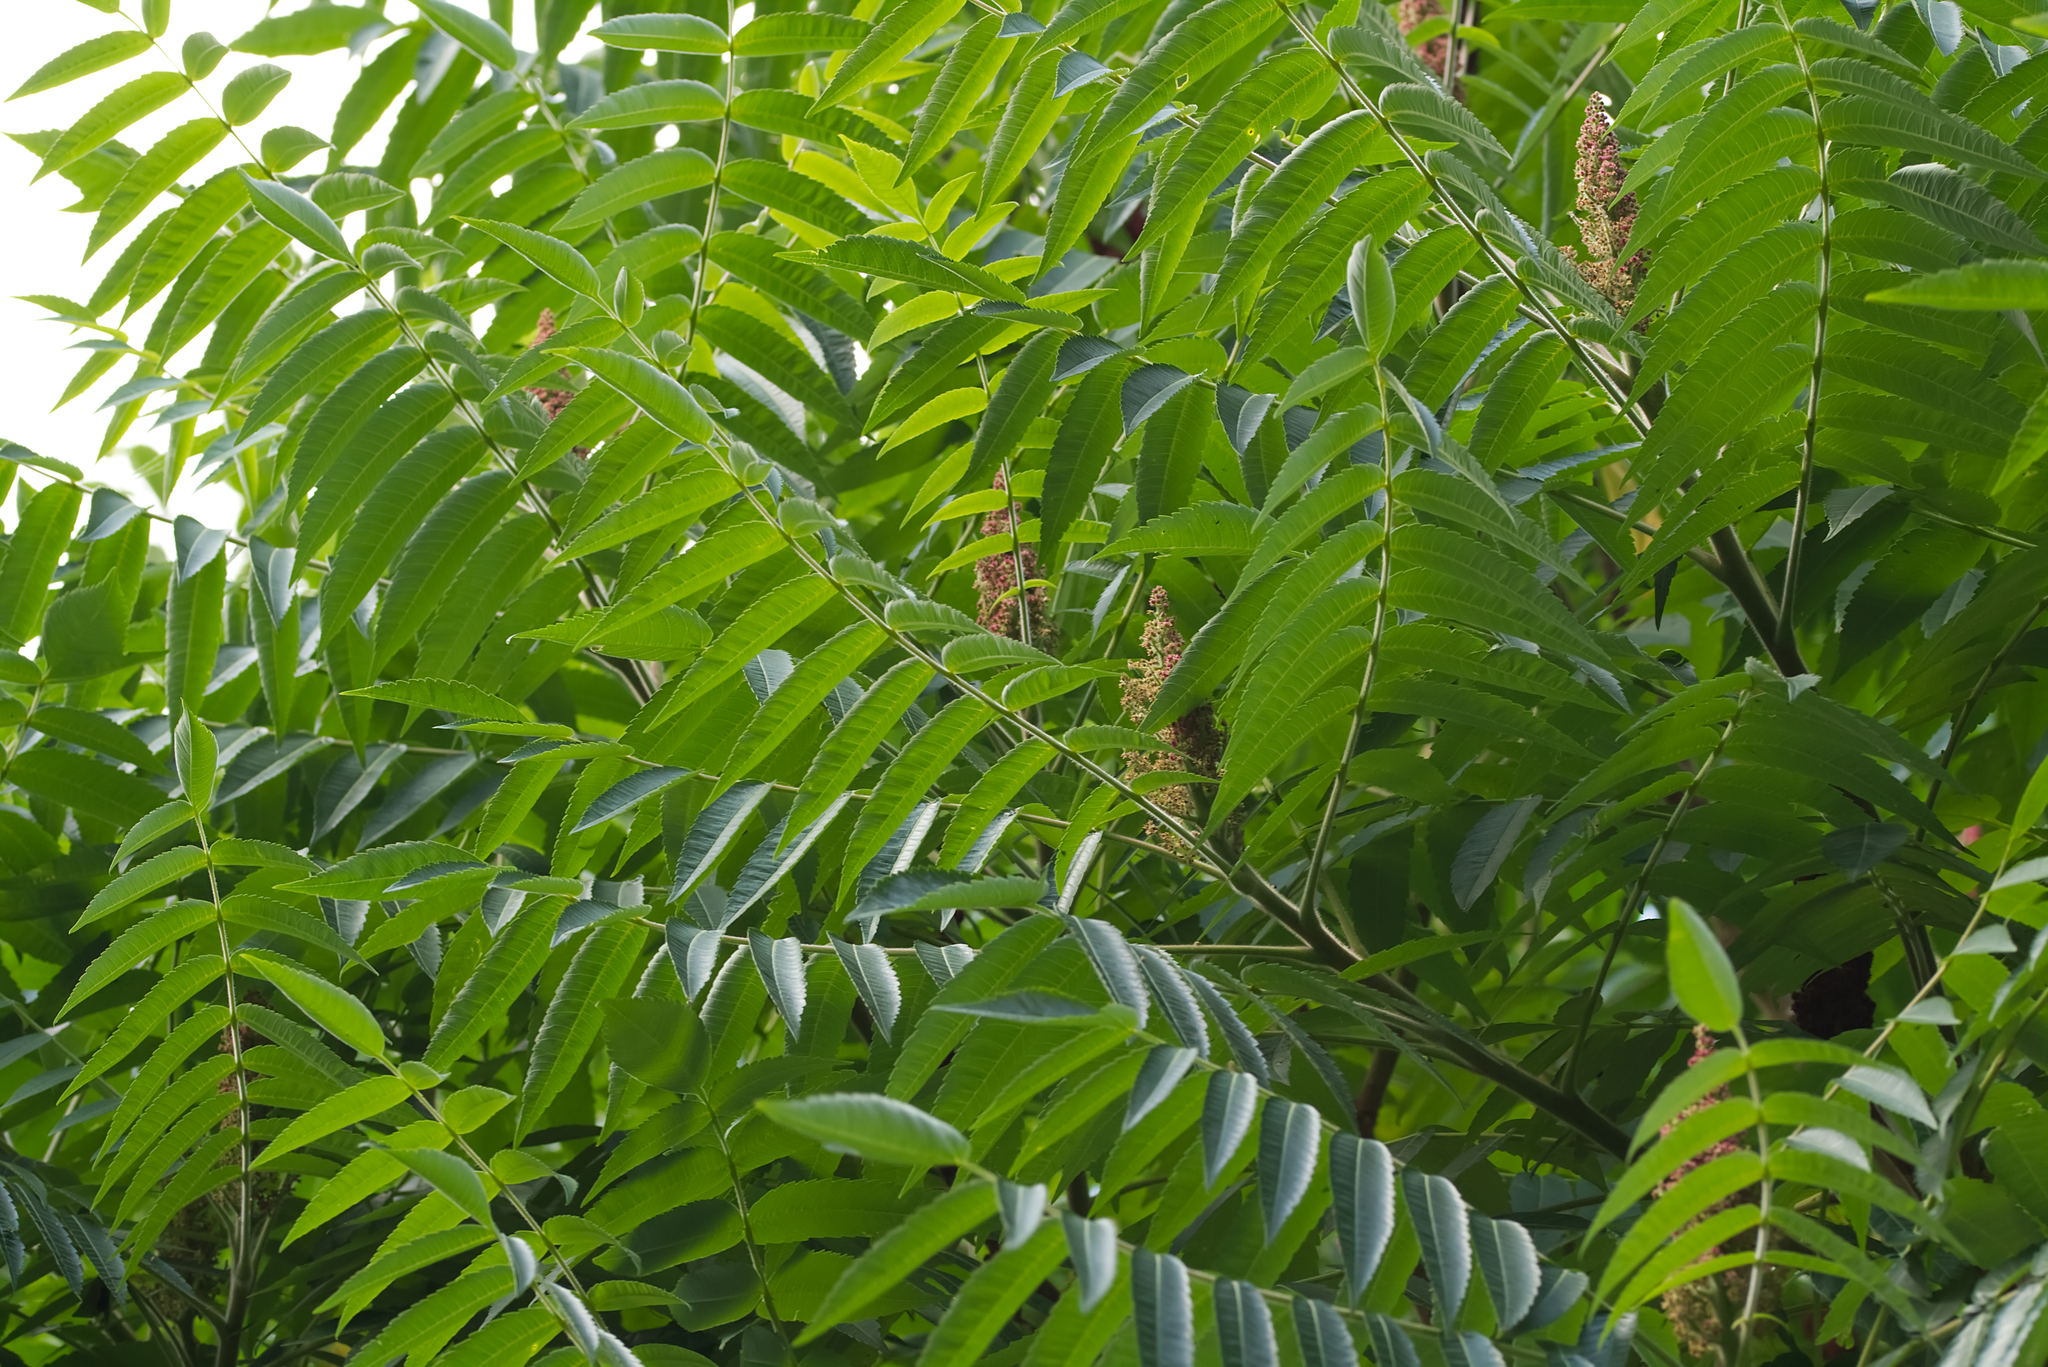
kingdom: Plantae
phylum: Tracheophyta
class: Magnoliopsida
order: Sapindales
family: Anacardiaceae
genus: Rhus
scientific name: Rhus typhina
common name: Staghorn sumac
